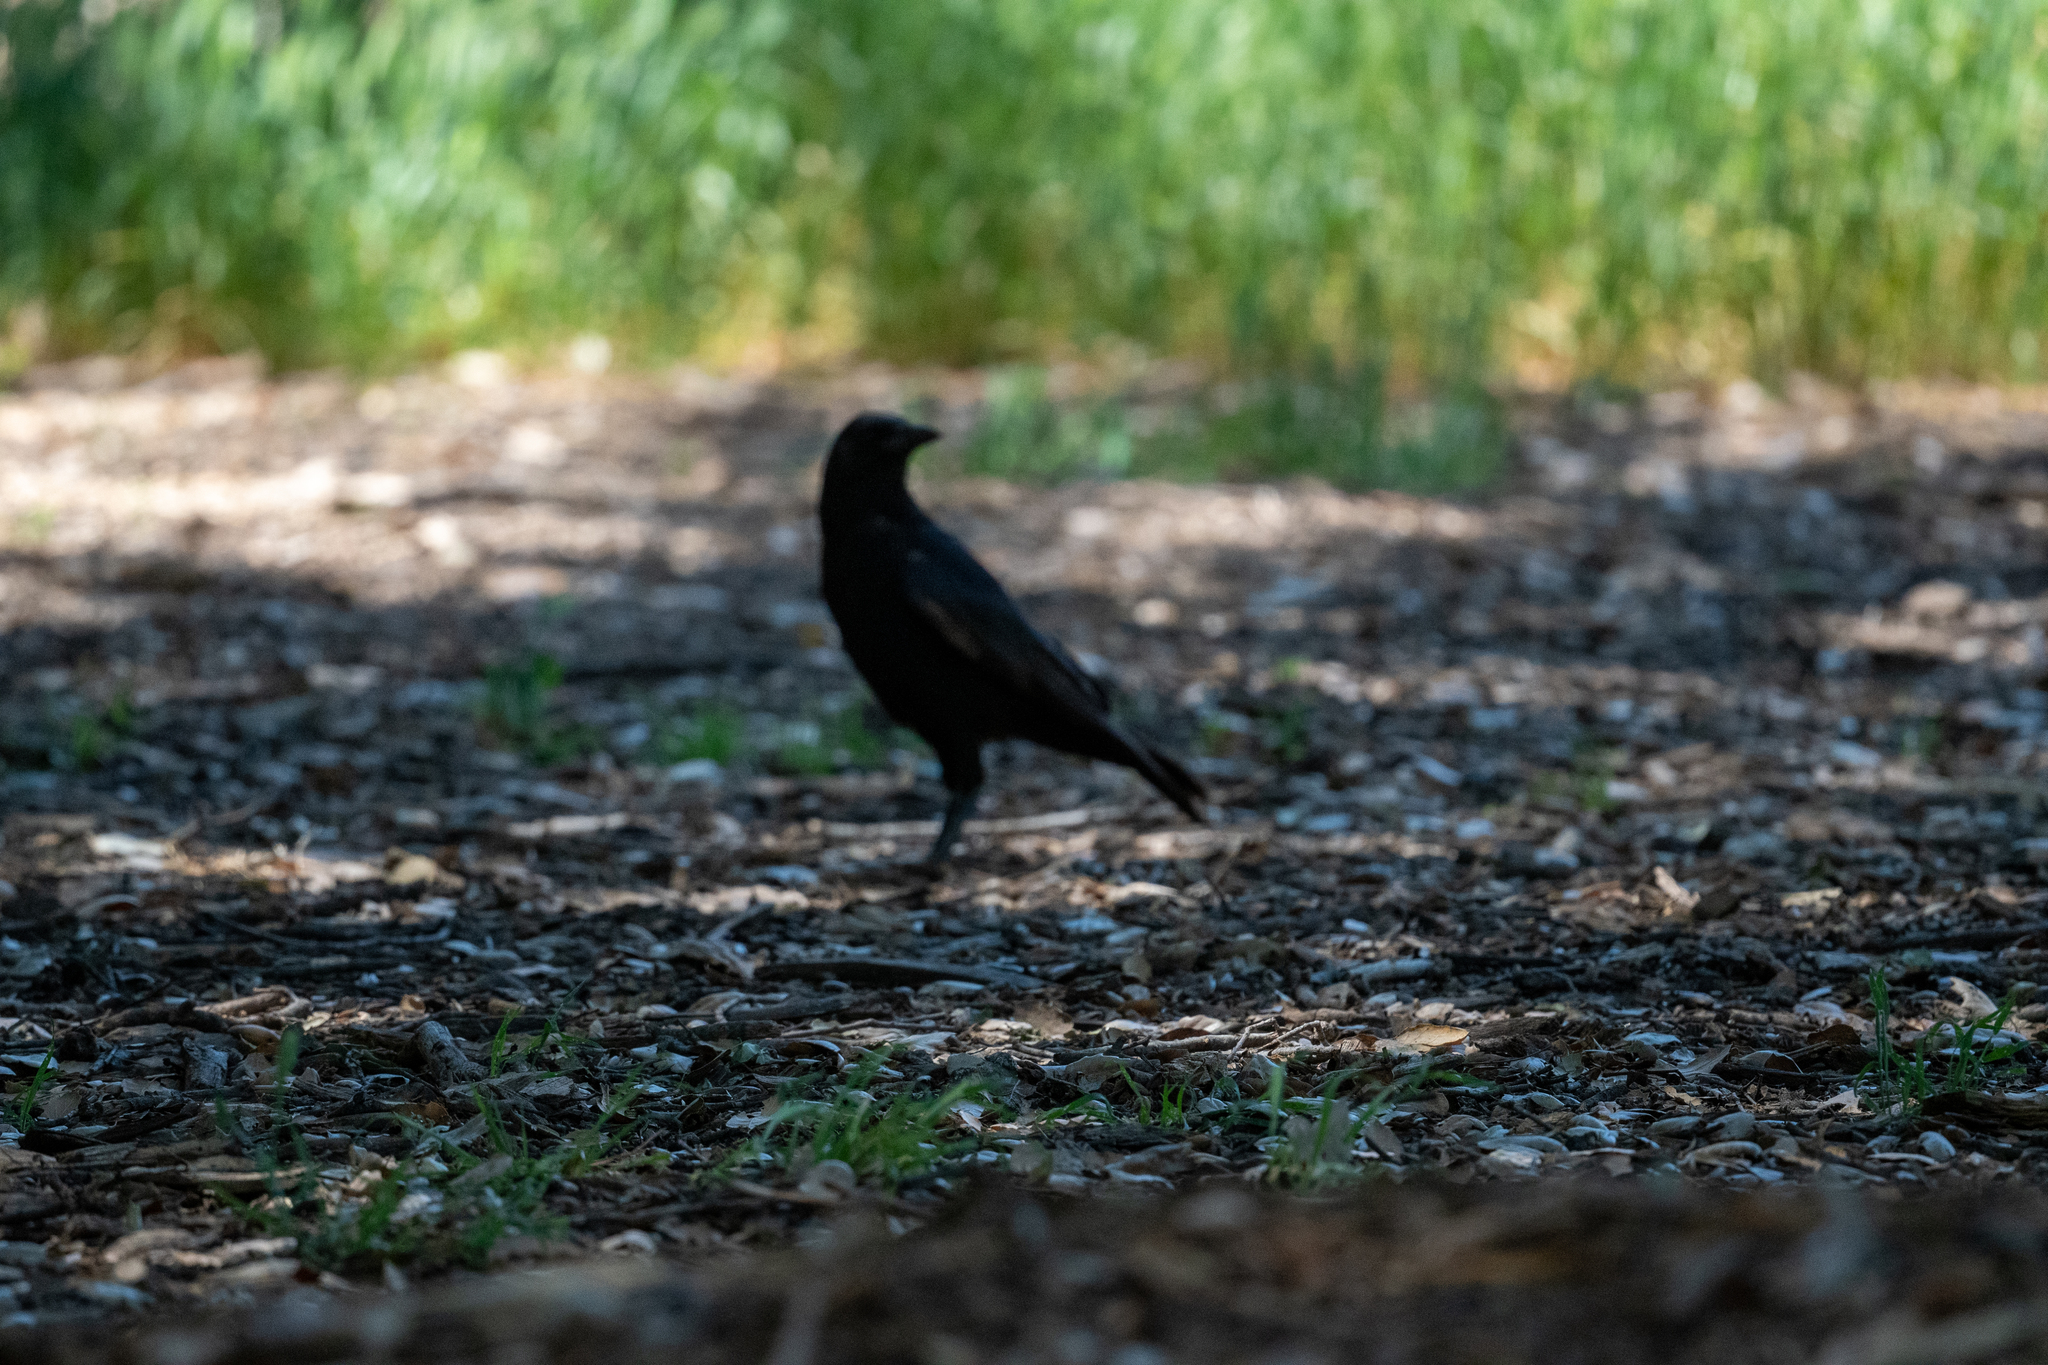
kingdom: Animalia
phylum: Chordata
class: Aves
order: Passeriformes
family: Corvidae
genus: Corvus
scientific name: Corvus brachyrhynchos
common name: American crow
